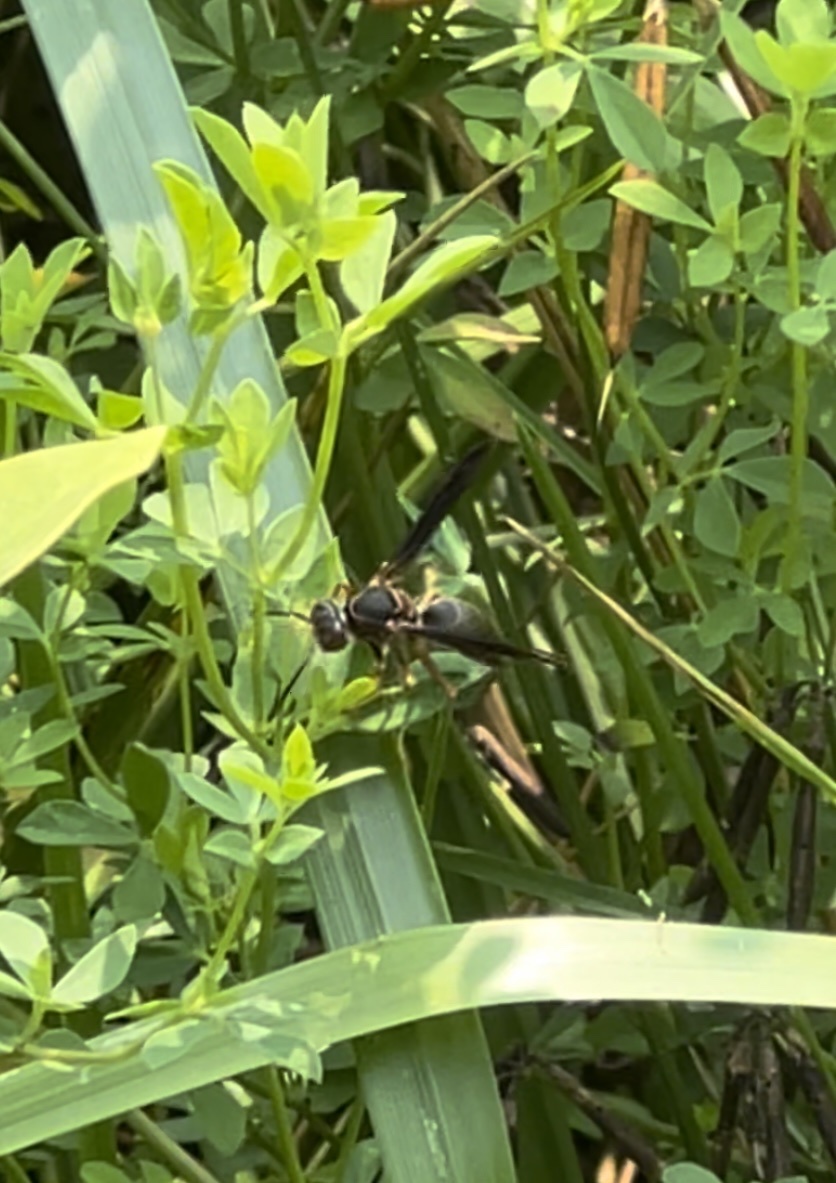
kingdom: Animalia
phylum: Arthropoda
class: Insecta
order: Hymenoptera
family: Eumenidae
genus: Polistes
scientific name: Polistes metricus
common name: Metric paper wasp
